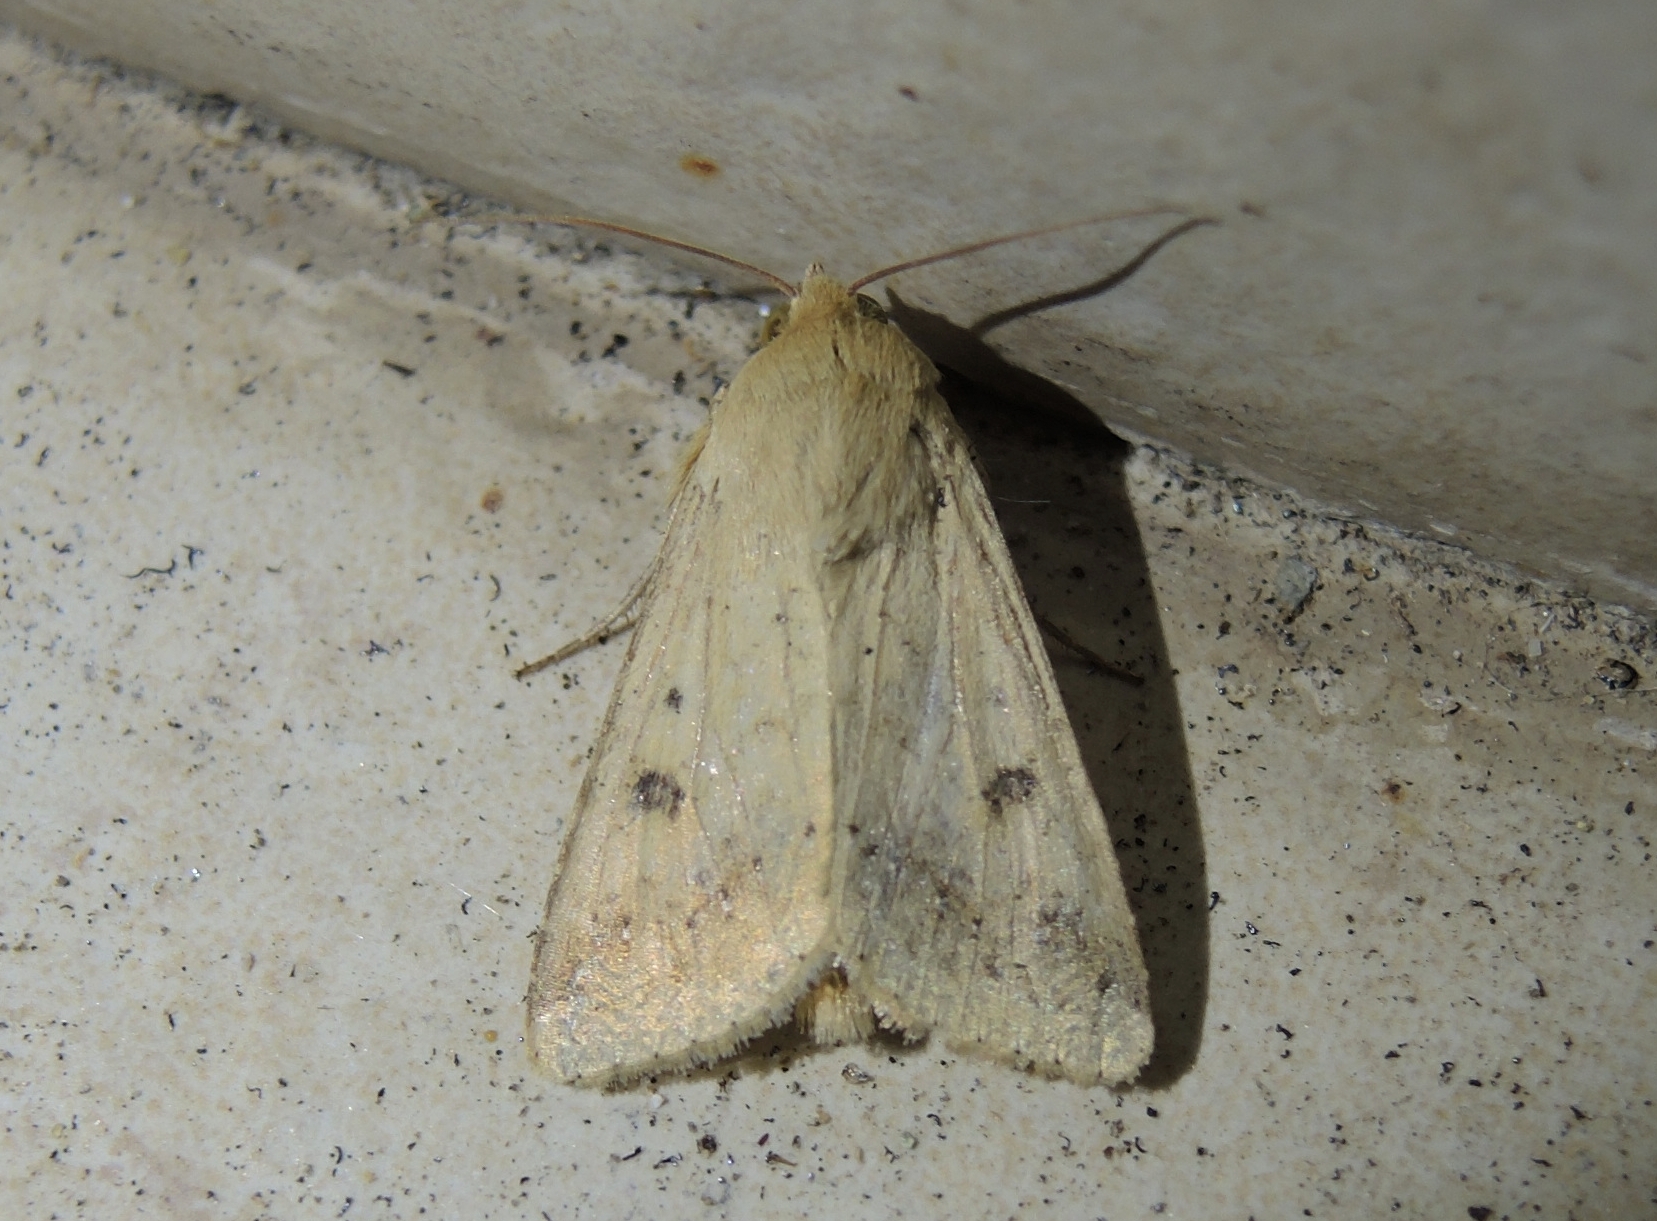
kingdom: Animalia
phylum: Arthropoda
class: Insecta
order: Lepidoptera
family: Noctuidae
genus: Helicoverpa
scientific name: Helicoverpa armigera
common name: Cotton bollworm
